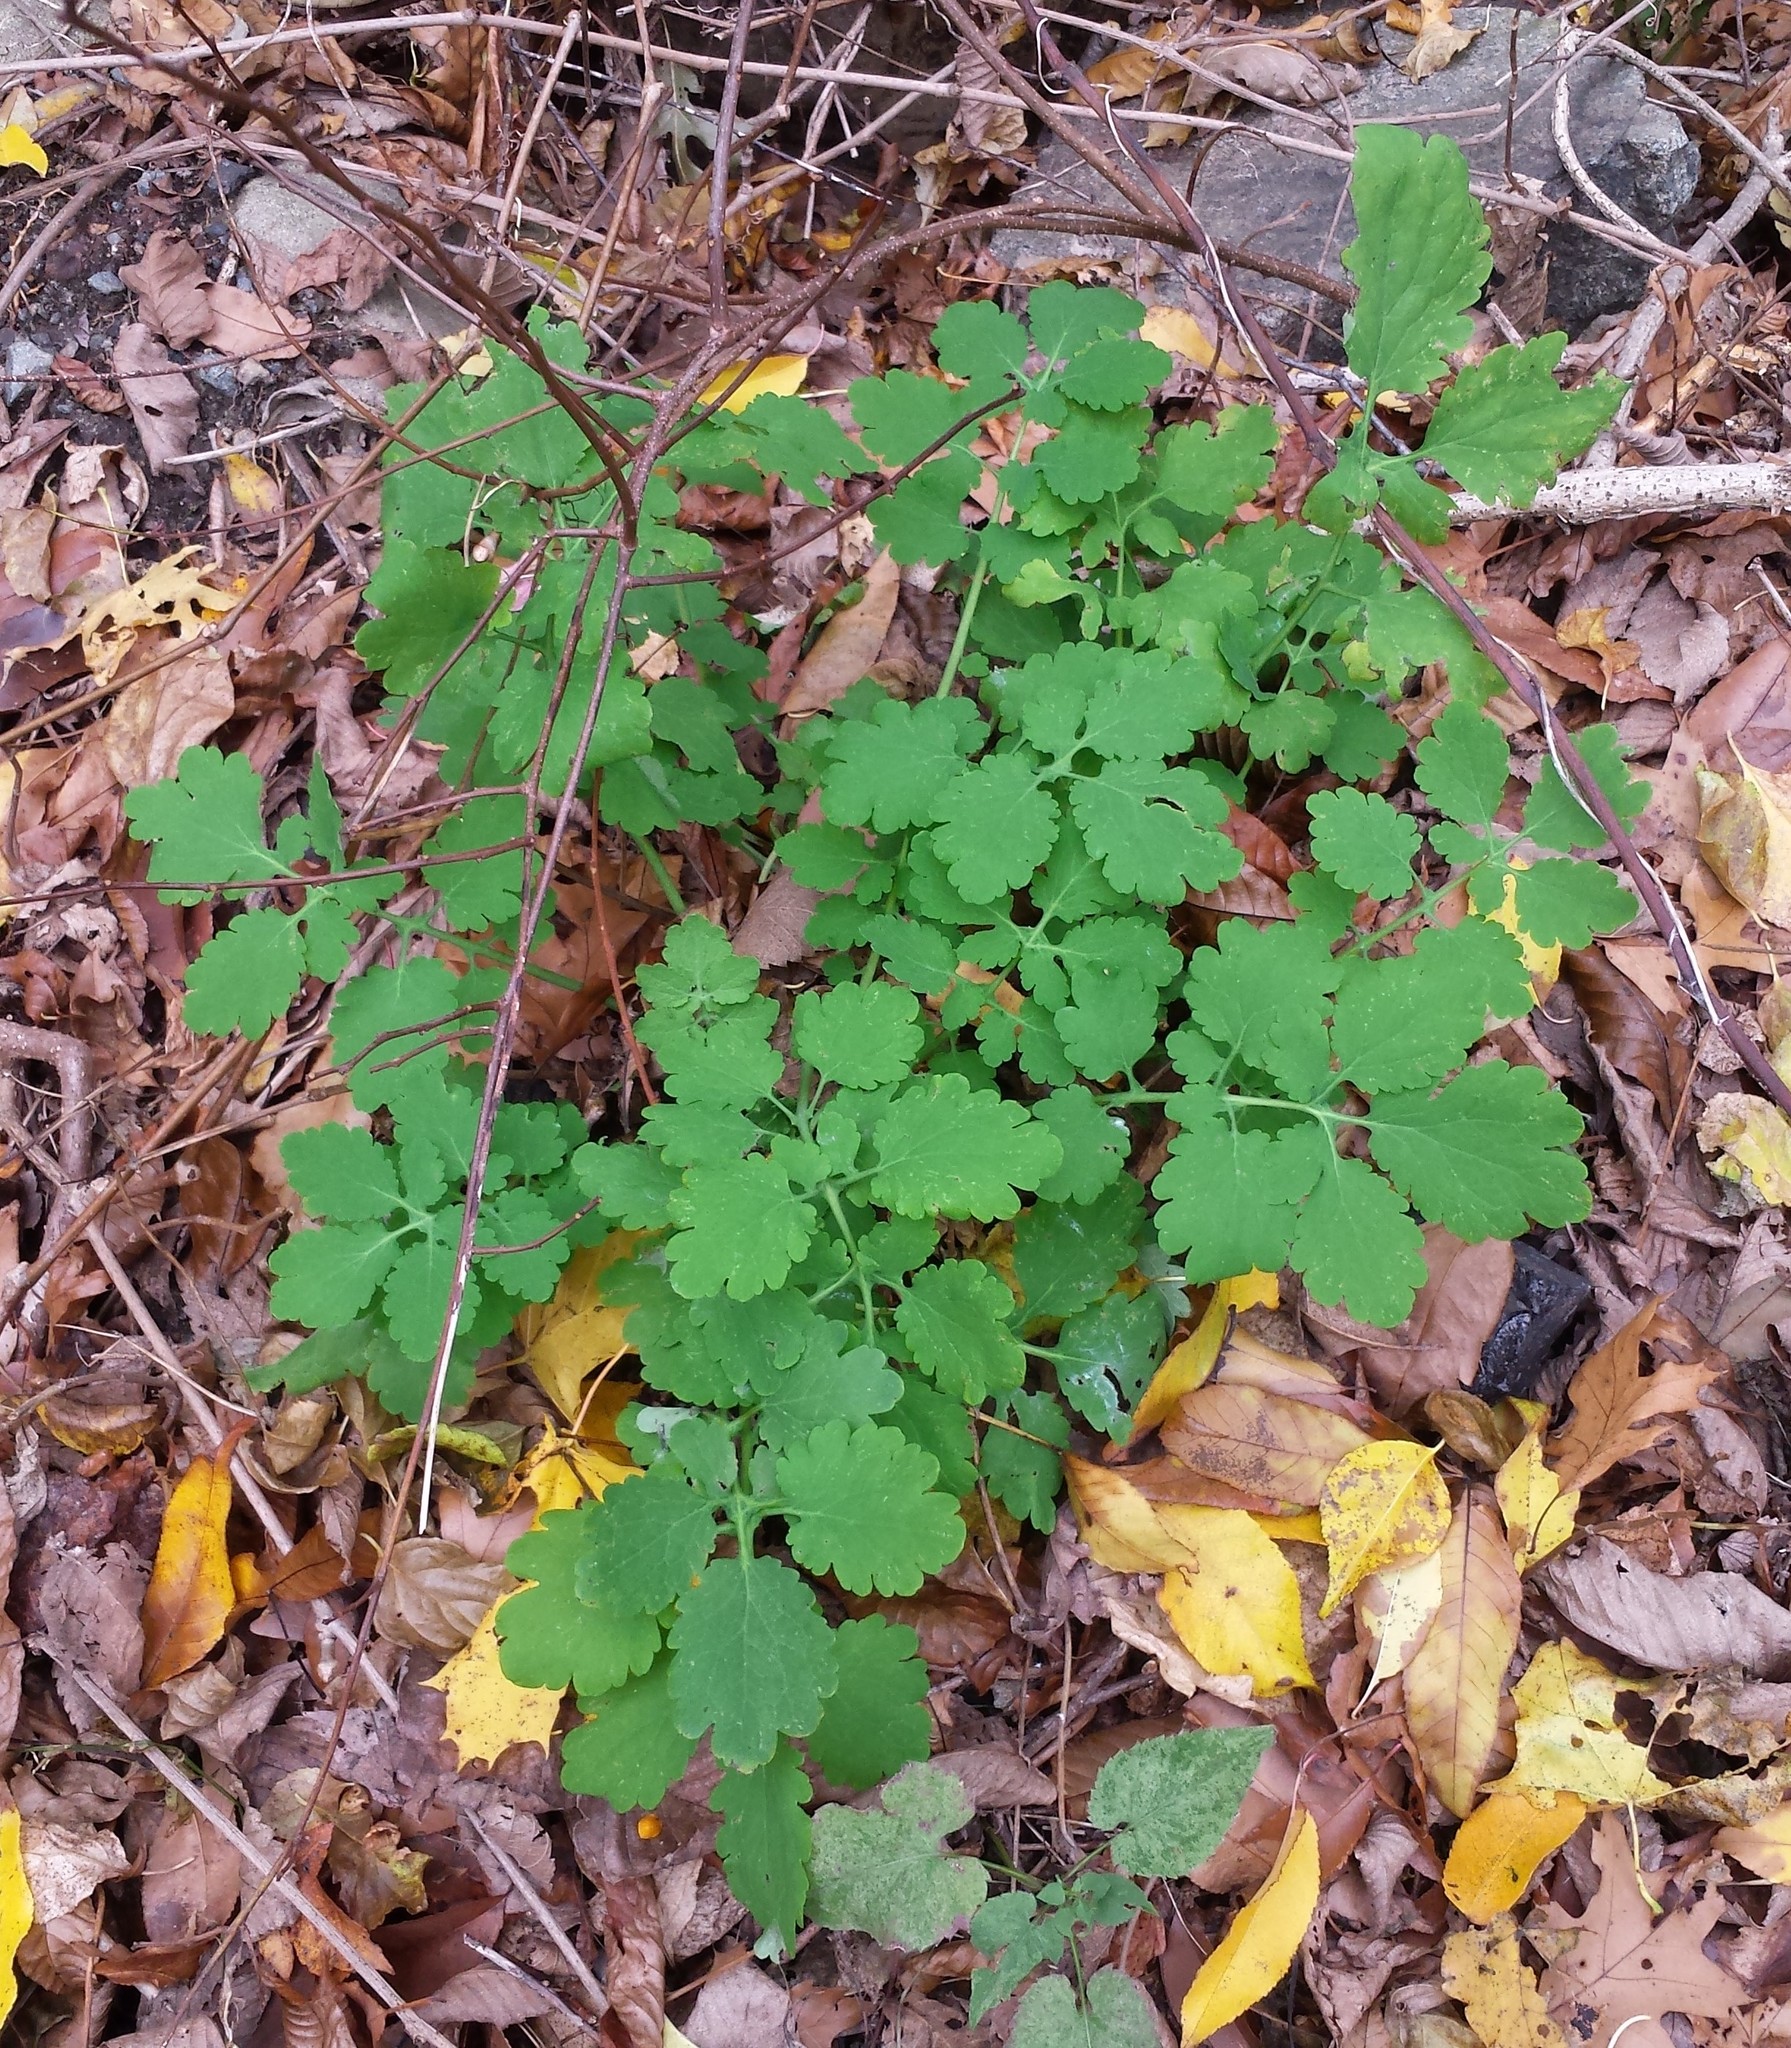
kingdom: Plantae
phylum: Tracheophyta
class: Magnoliopsida
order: Ranunculales
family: Papaveraceae
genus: Chelidonium
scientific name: Chelidonium majus
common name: Greater celandine
